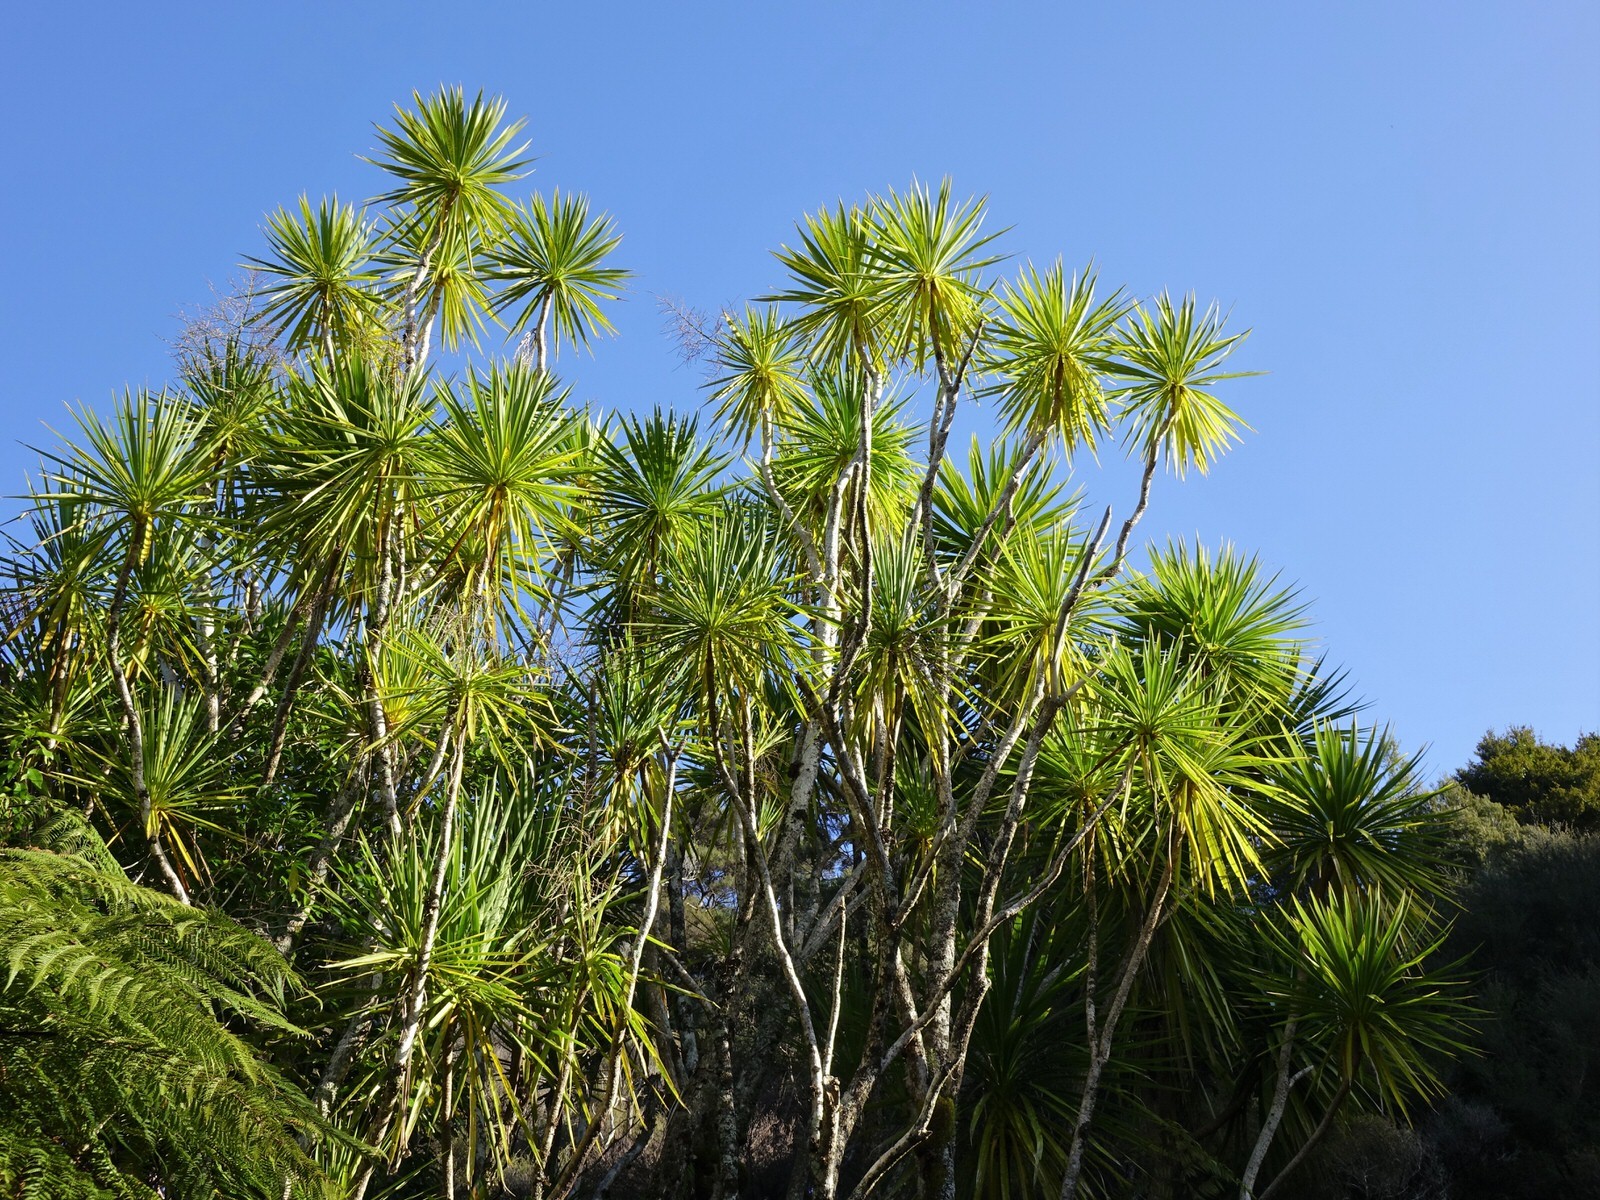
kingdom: Plantae
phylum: Tracheophyta
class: Liliopsida
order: Asparagales
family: Asparagaceae
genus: Cordyline
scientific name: Cordyline australis
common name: Cabbage-palm
